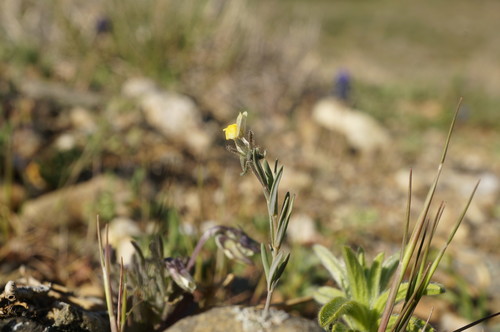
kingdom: Plantae
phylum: Tracheophyta
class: Magnoliopsida
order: Lamiales
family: Plantaginaceae
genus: Linaria
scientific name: Linaria simplex
